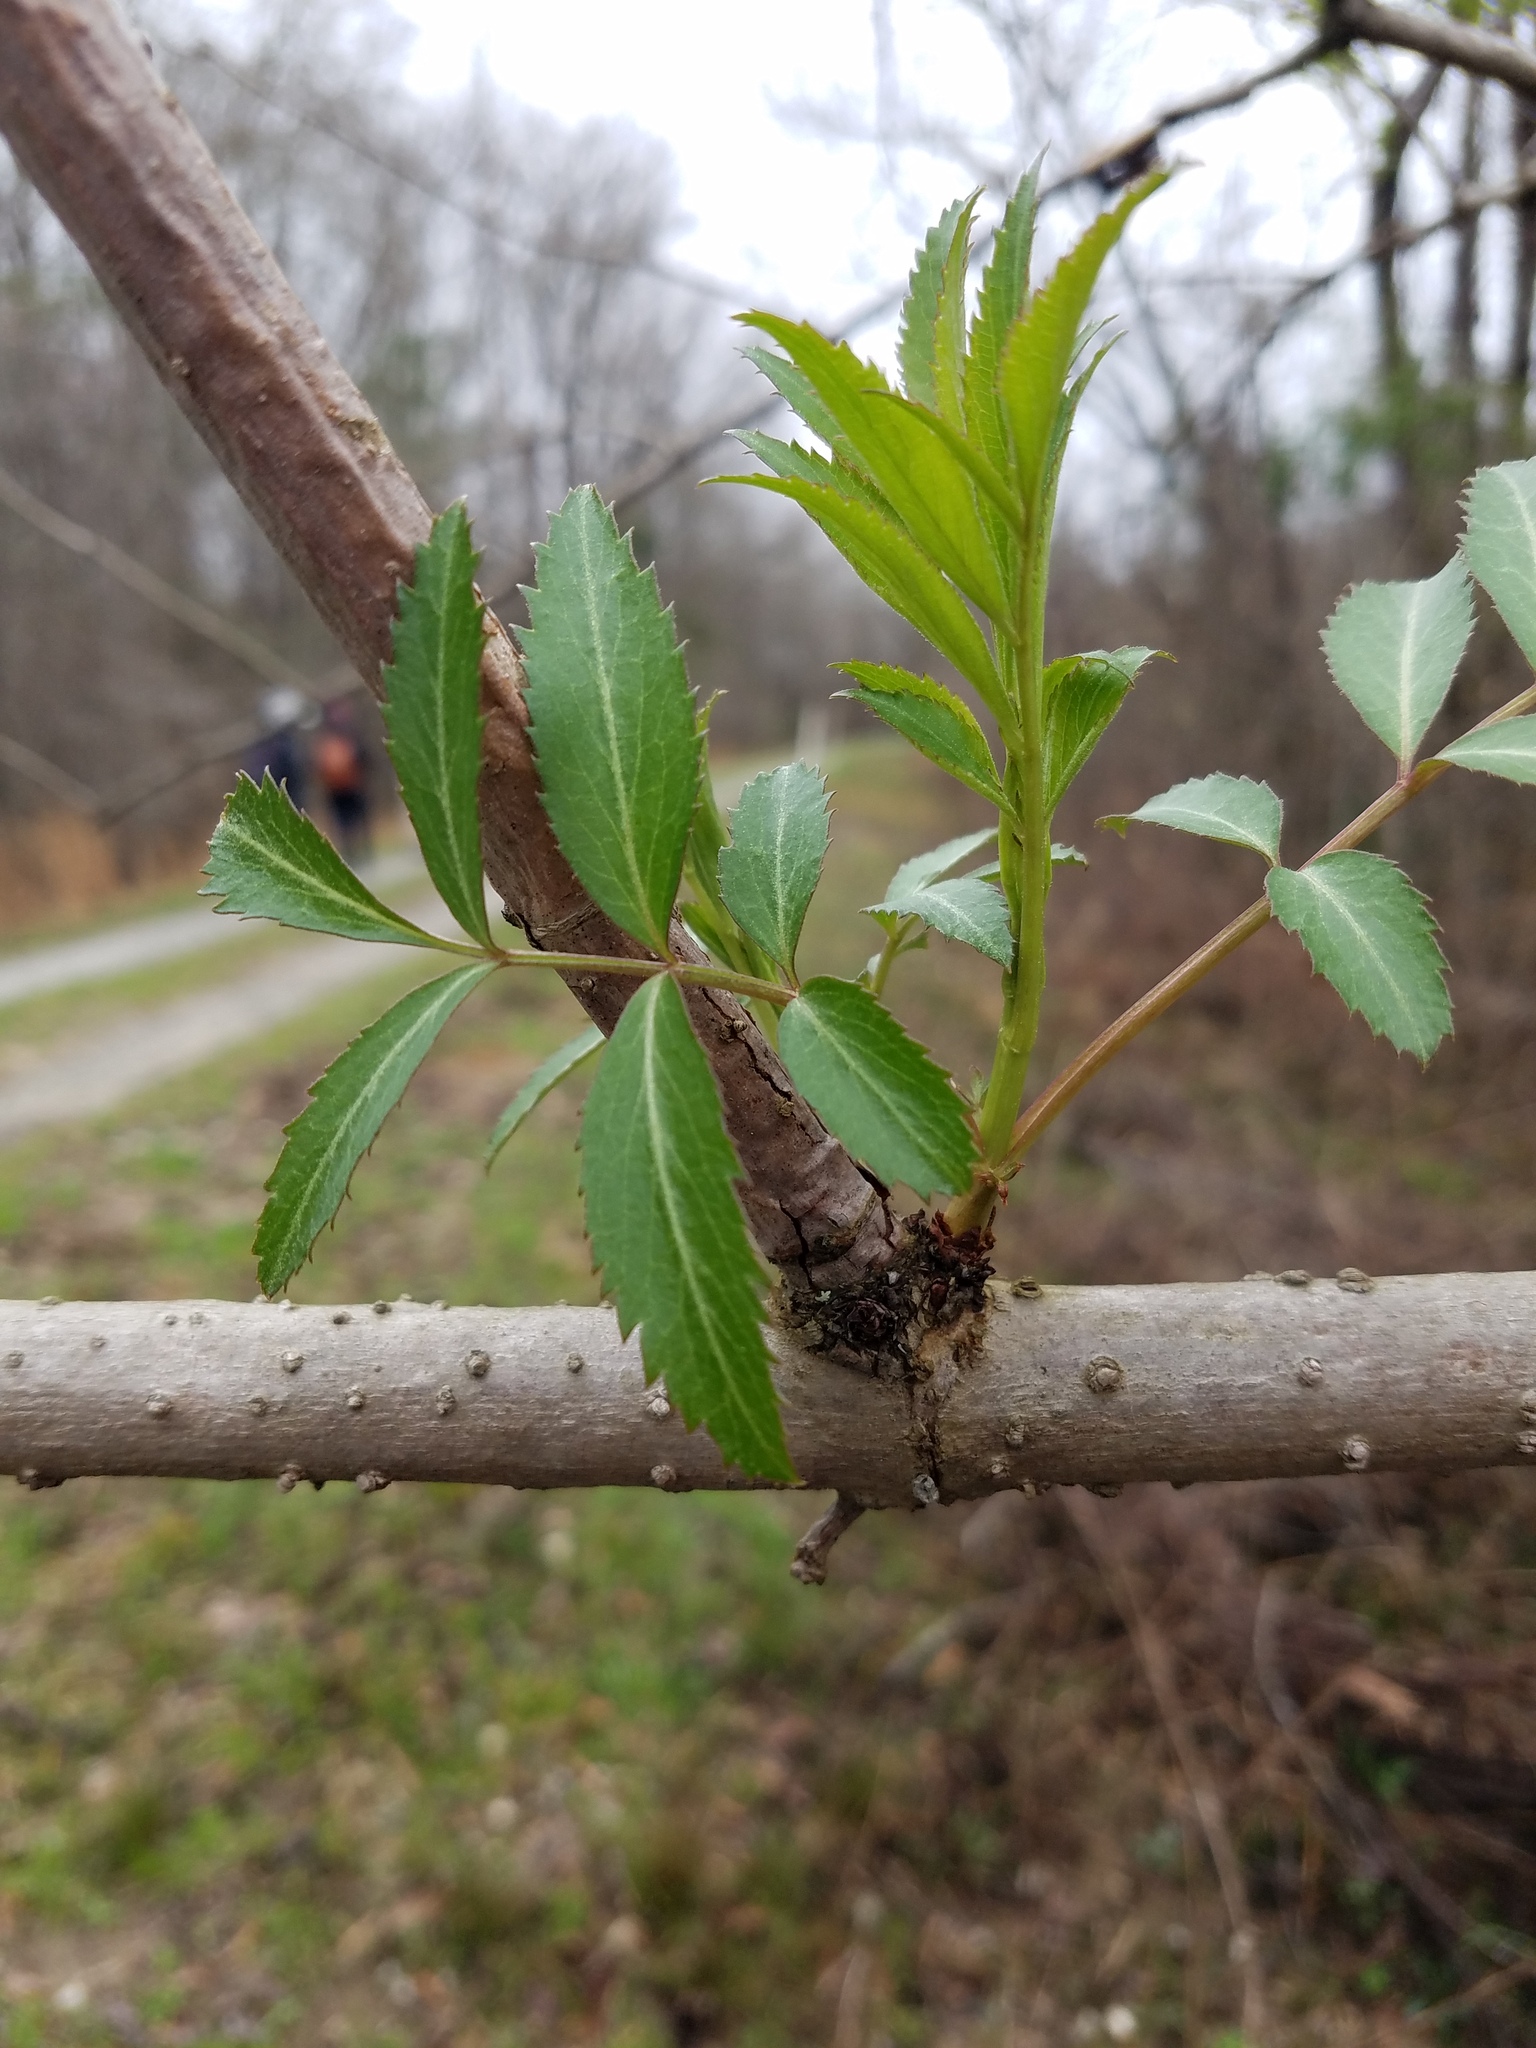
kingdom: Plantae
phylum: Tracheophyta
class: Magnoliopsida
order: Dipsacales
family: Viburnaceae
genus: Sambucus
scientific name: Sambucus canadensis
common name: American elder
